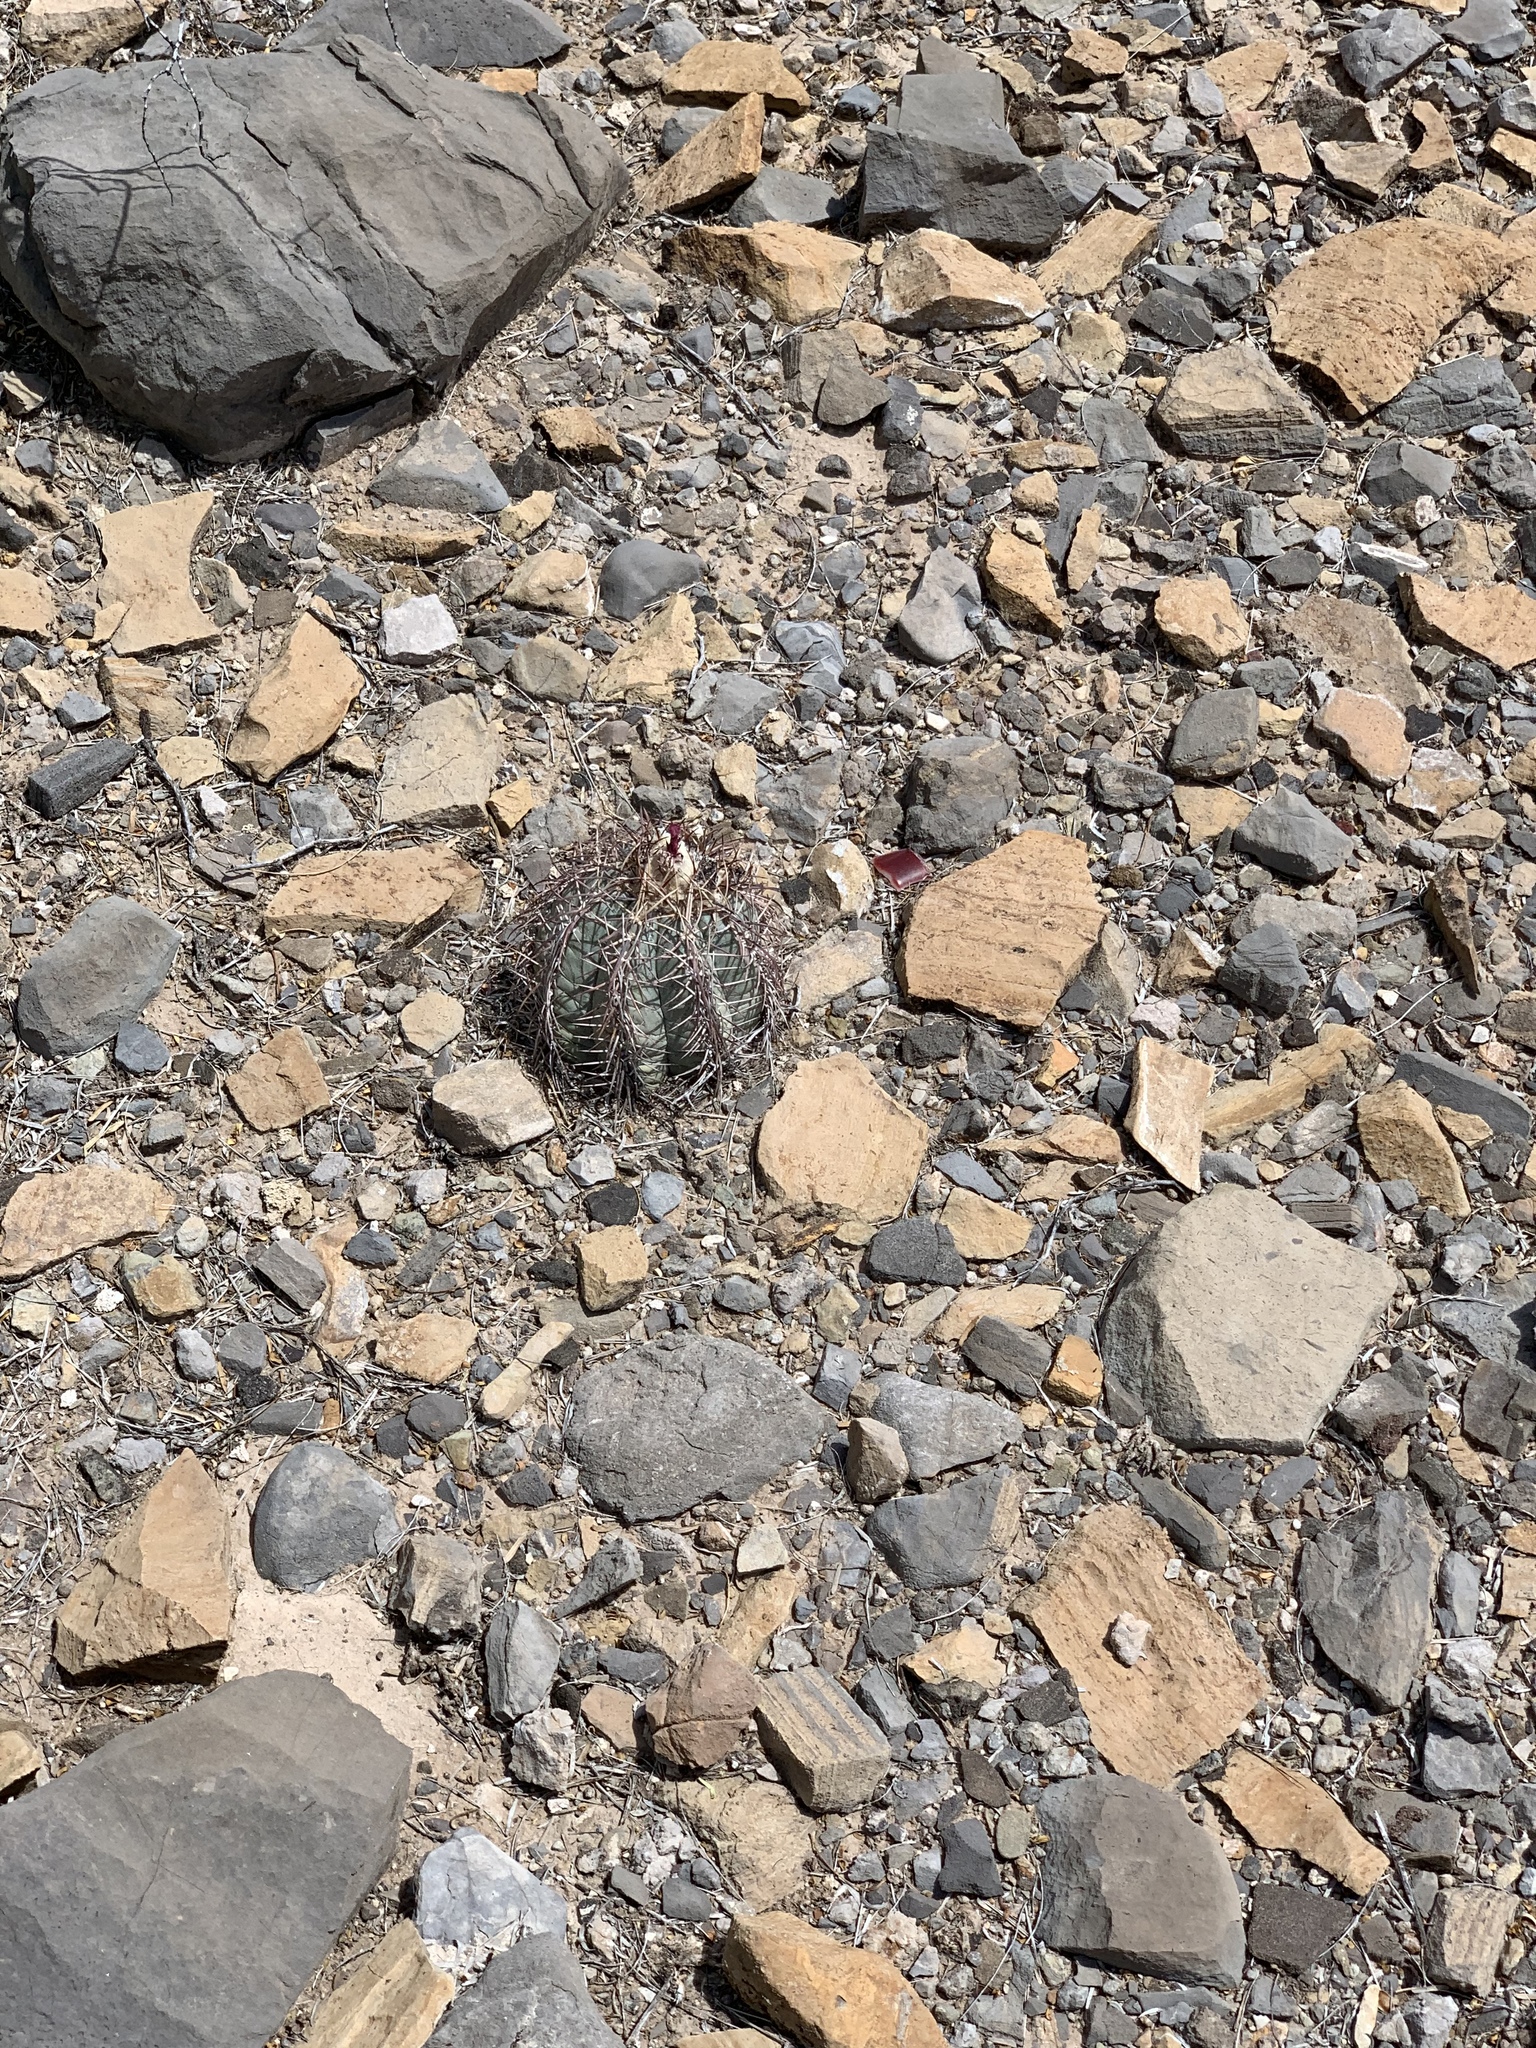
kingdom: Plantae
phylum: Tracheophyta
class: Magnoliopsida
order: Caryophyllales
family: Cactaceae
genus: Echinocactus
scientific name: Echinocactus horizonthalonius
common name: Devilshead
